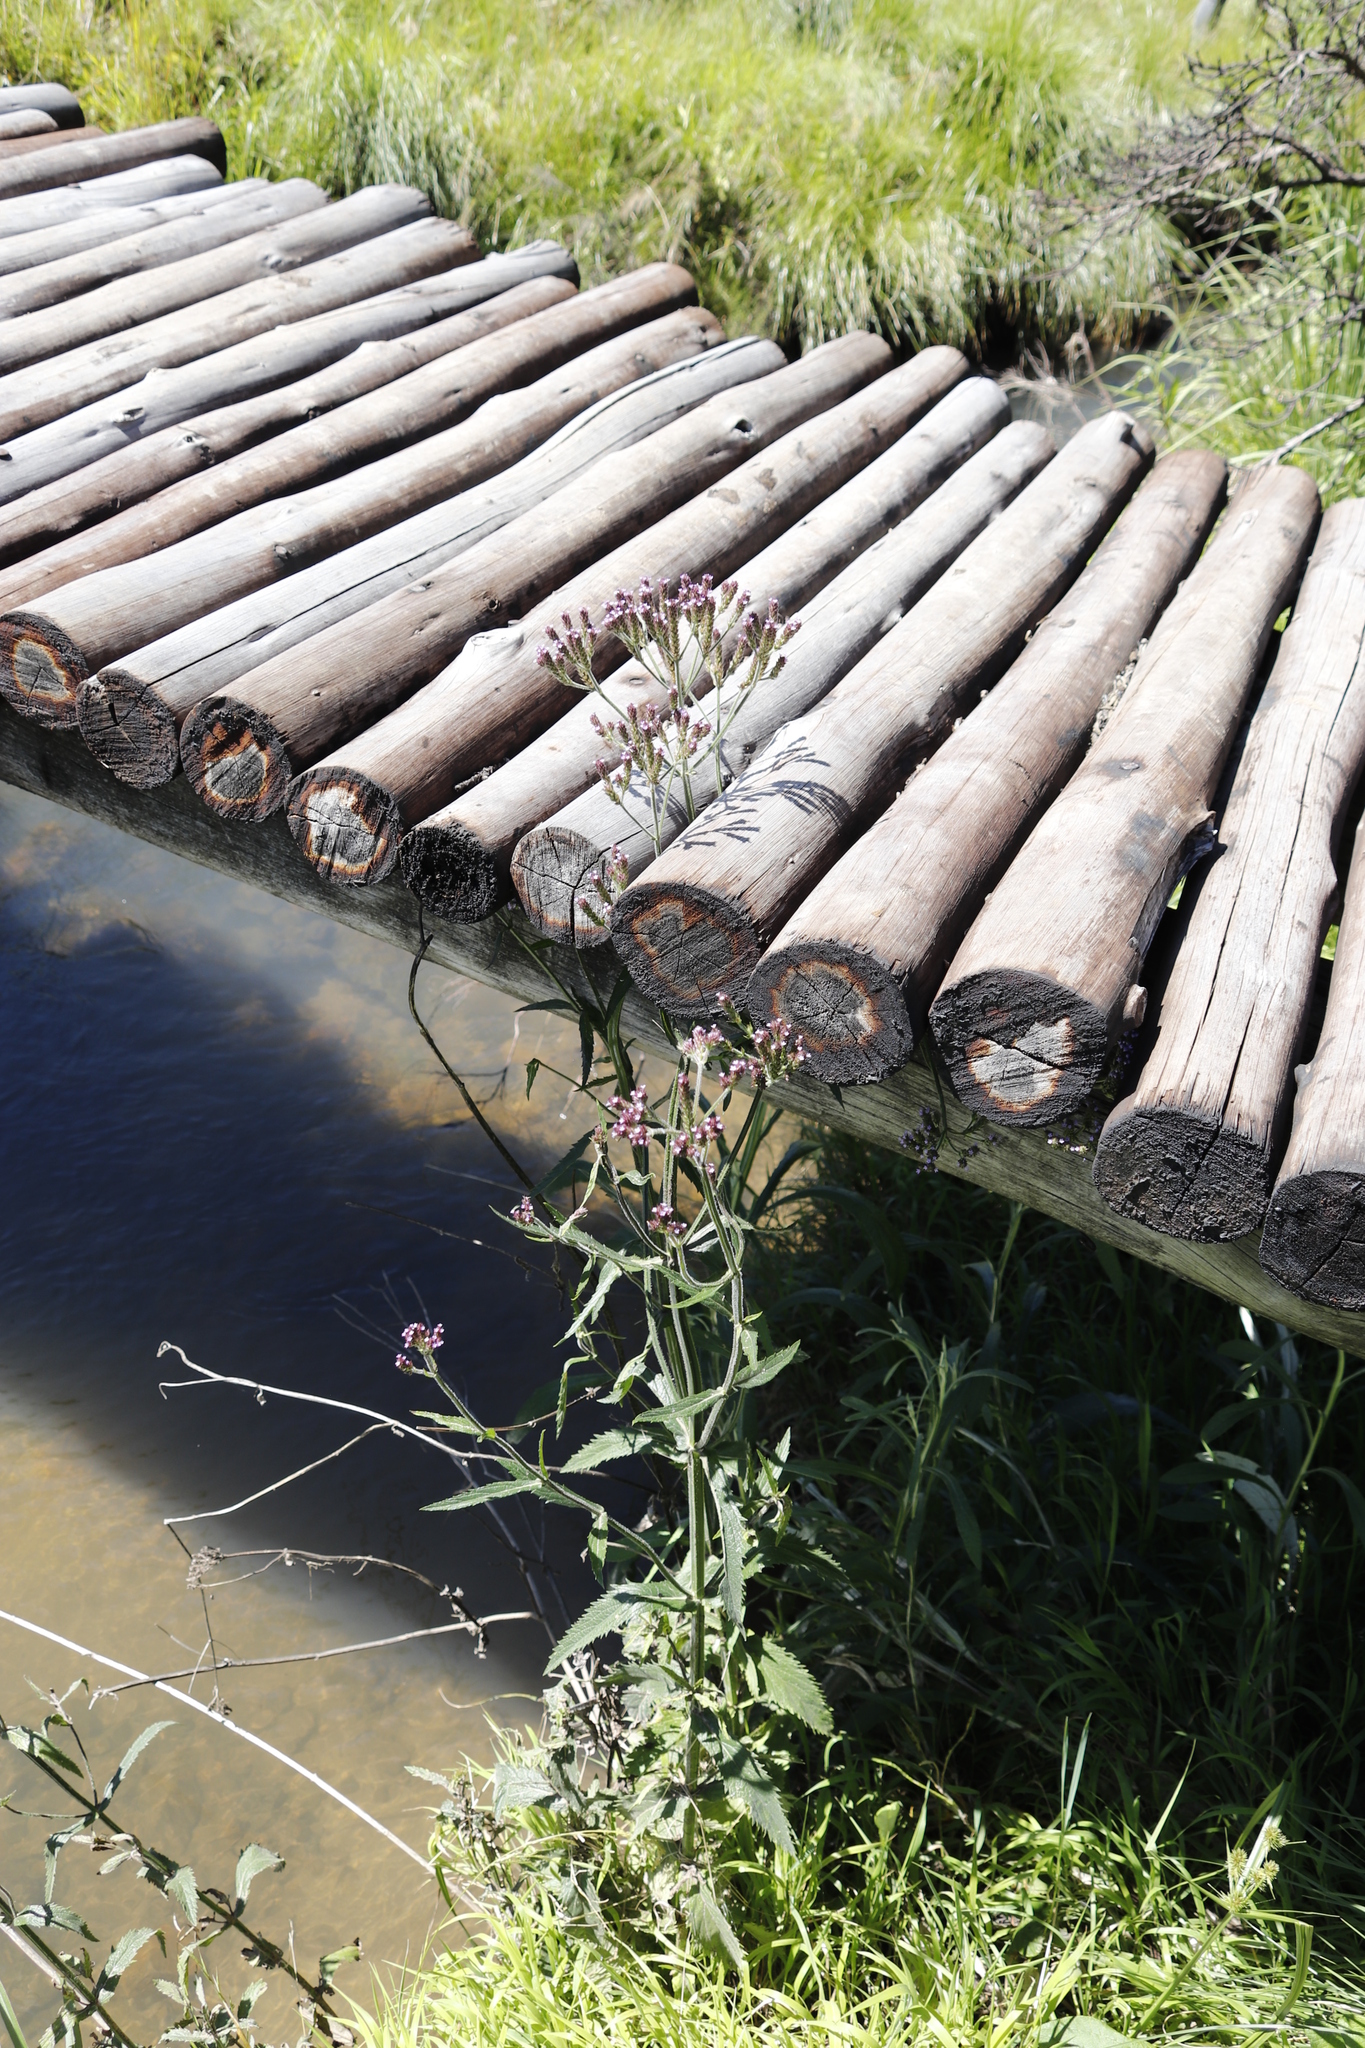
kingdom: Plantae
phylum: Tracheophyta
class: Magnoliopsida
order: Lamiales
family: Verbenaceae
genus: Verbena
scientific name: Verbena bonariensis
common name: Purpletop vervain
